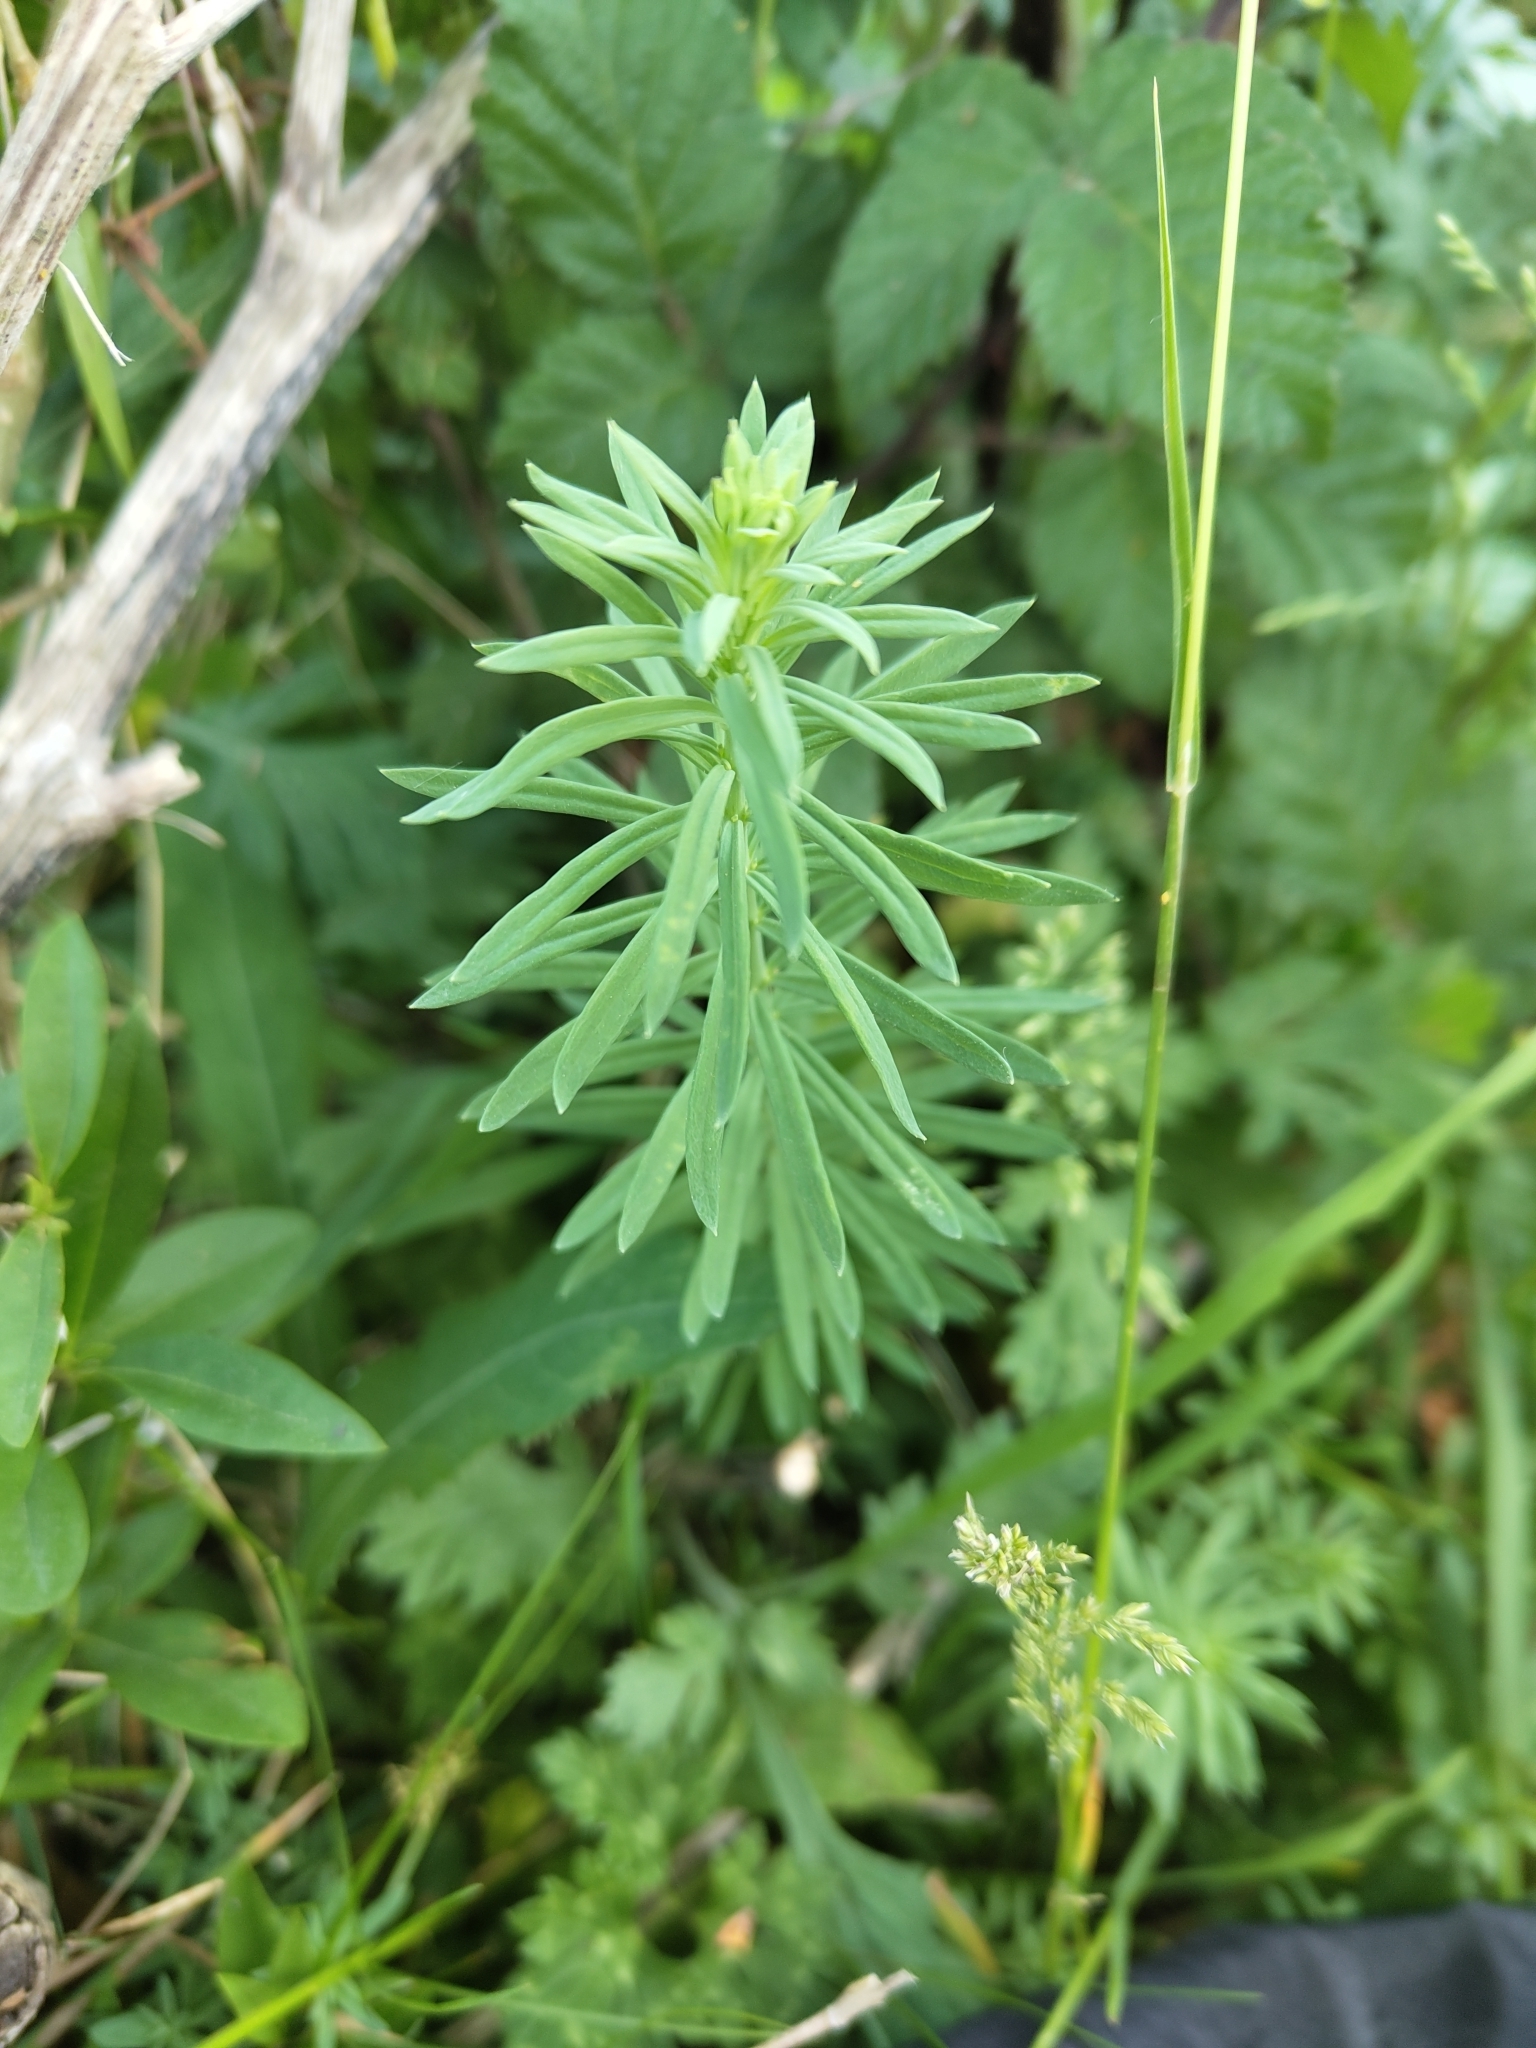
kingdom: Plantae
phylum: Tracheophyta
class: Magnoliopsida
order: Lamiales
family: Plantaginaceae
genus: Linaria
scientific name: Linaria vulgaris
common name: Butter and eggs
